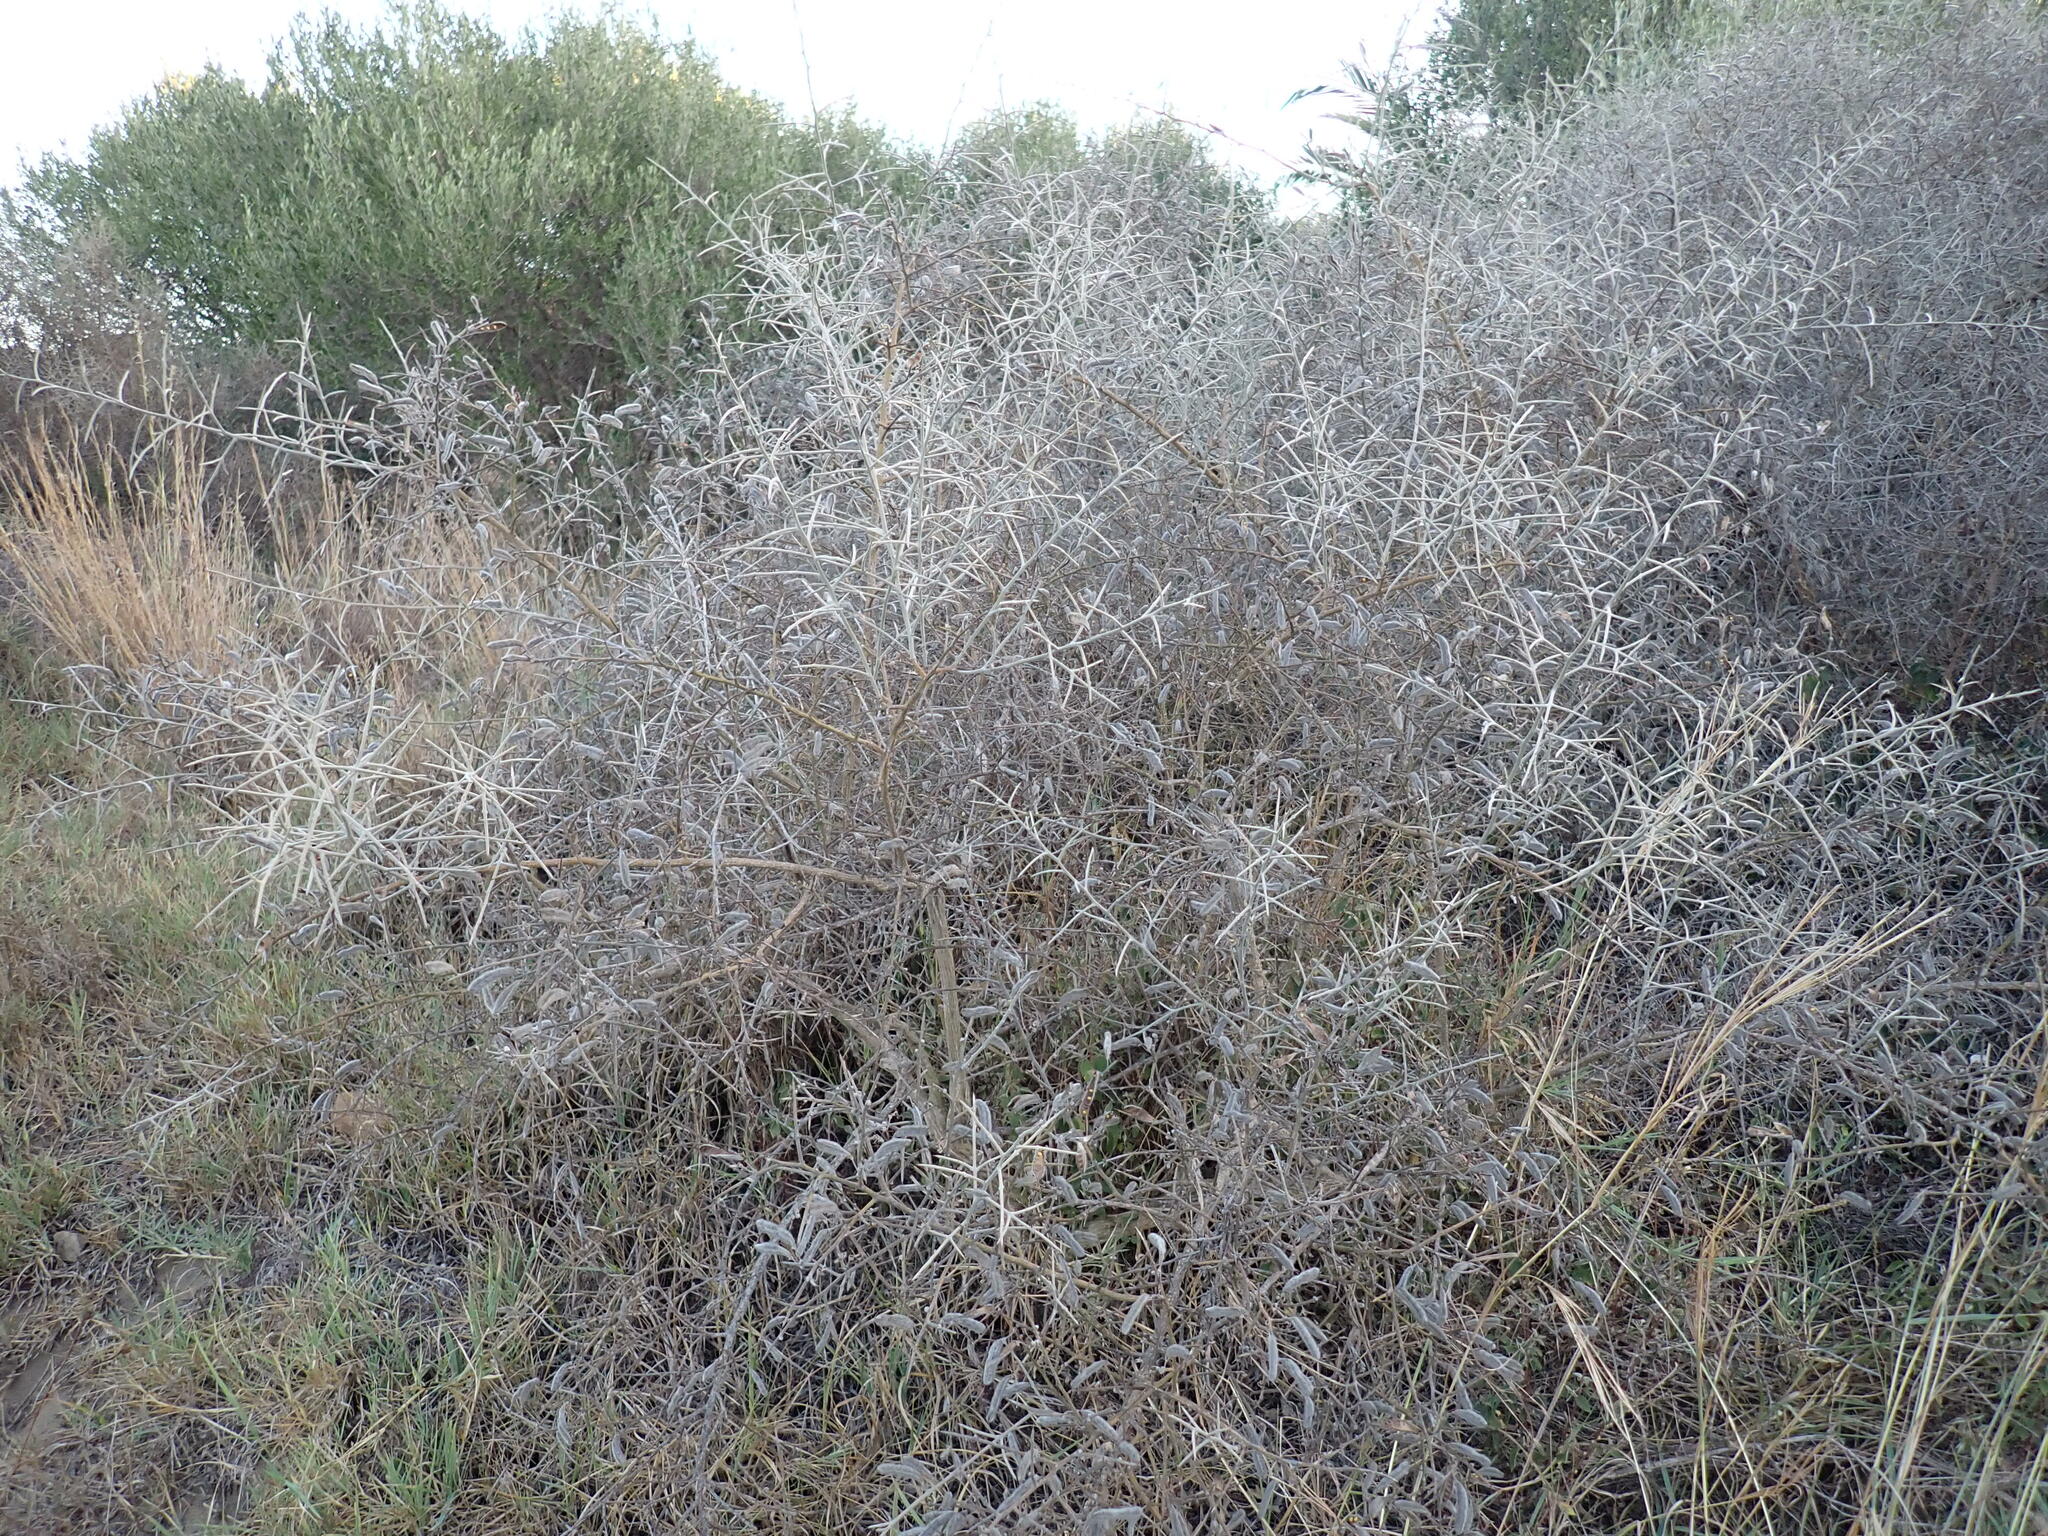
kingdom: Plantae
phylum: Tracheophyta
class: Magnoliopsida
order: Fabales
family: Fabaceae
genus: Calicotome
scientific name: Calicotome villosa
